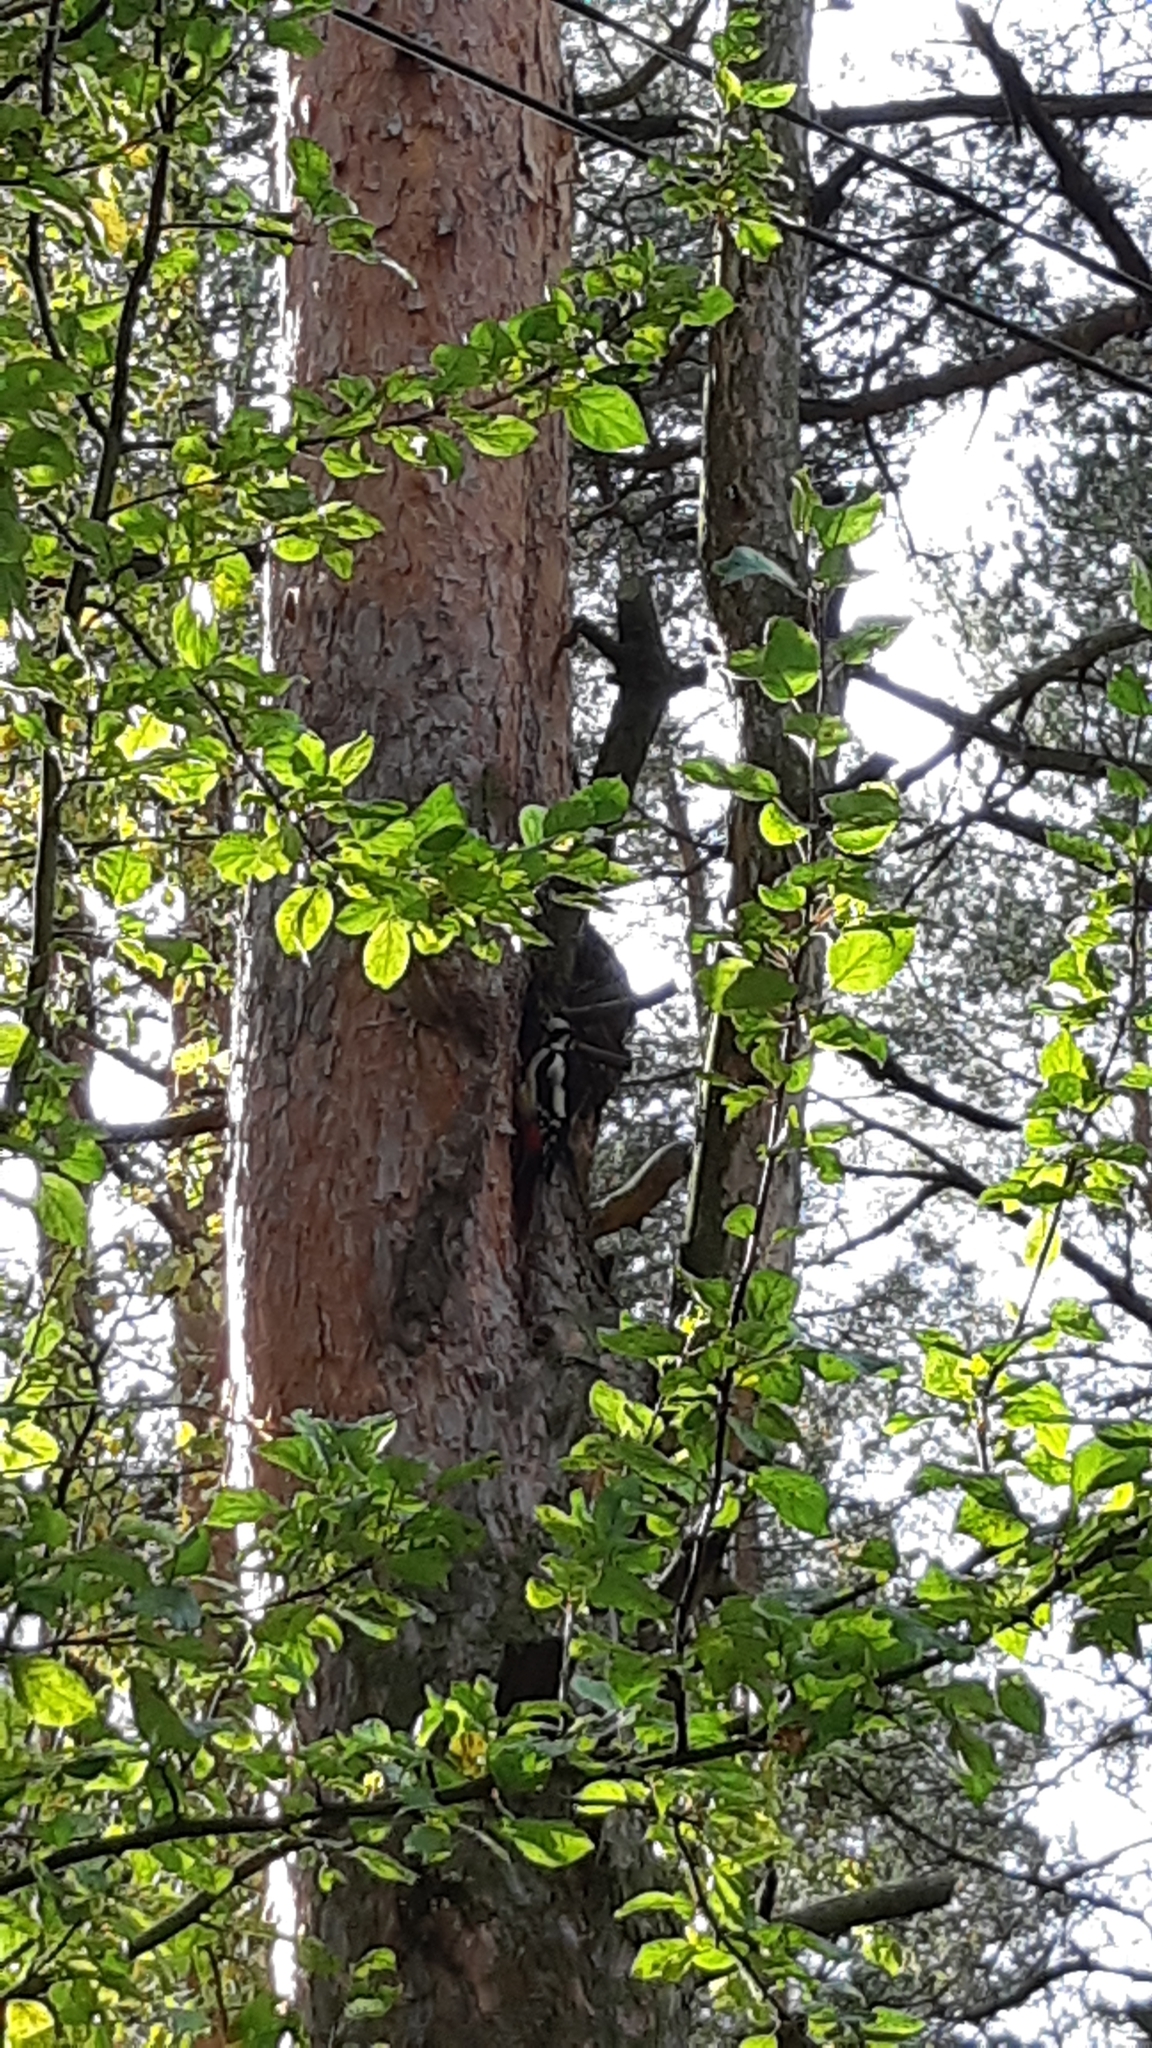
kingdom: Animalia
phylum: Chordata
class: Aves
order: Piciformes
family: Picidae
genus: Dendrocopos
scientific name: Dendrocopos major
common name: Great spotted woodpecker
